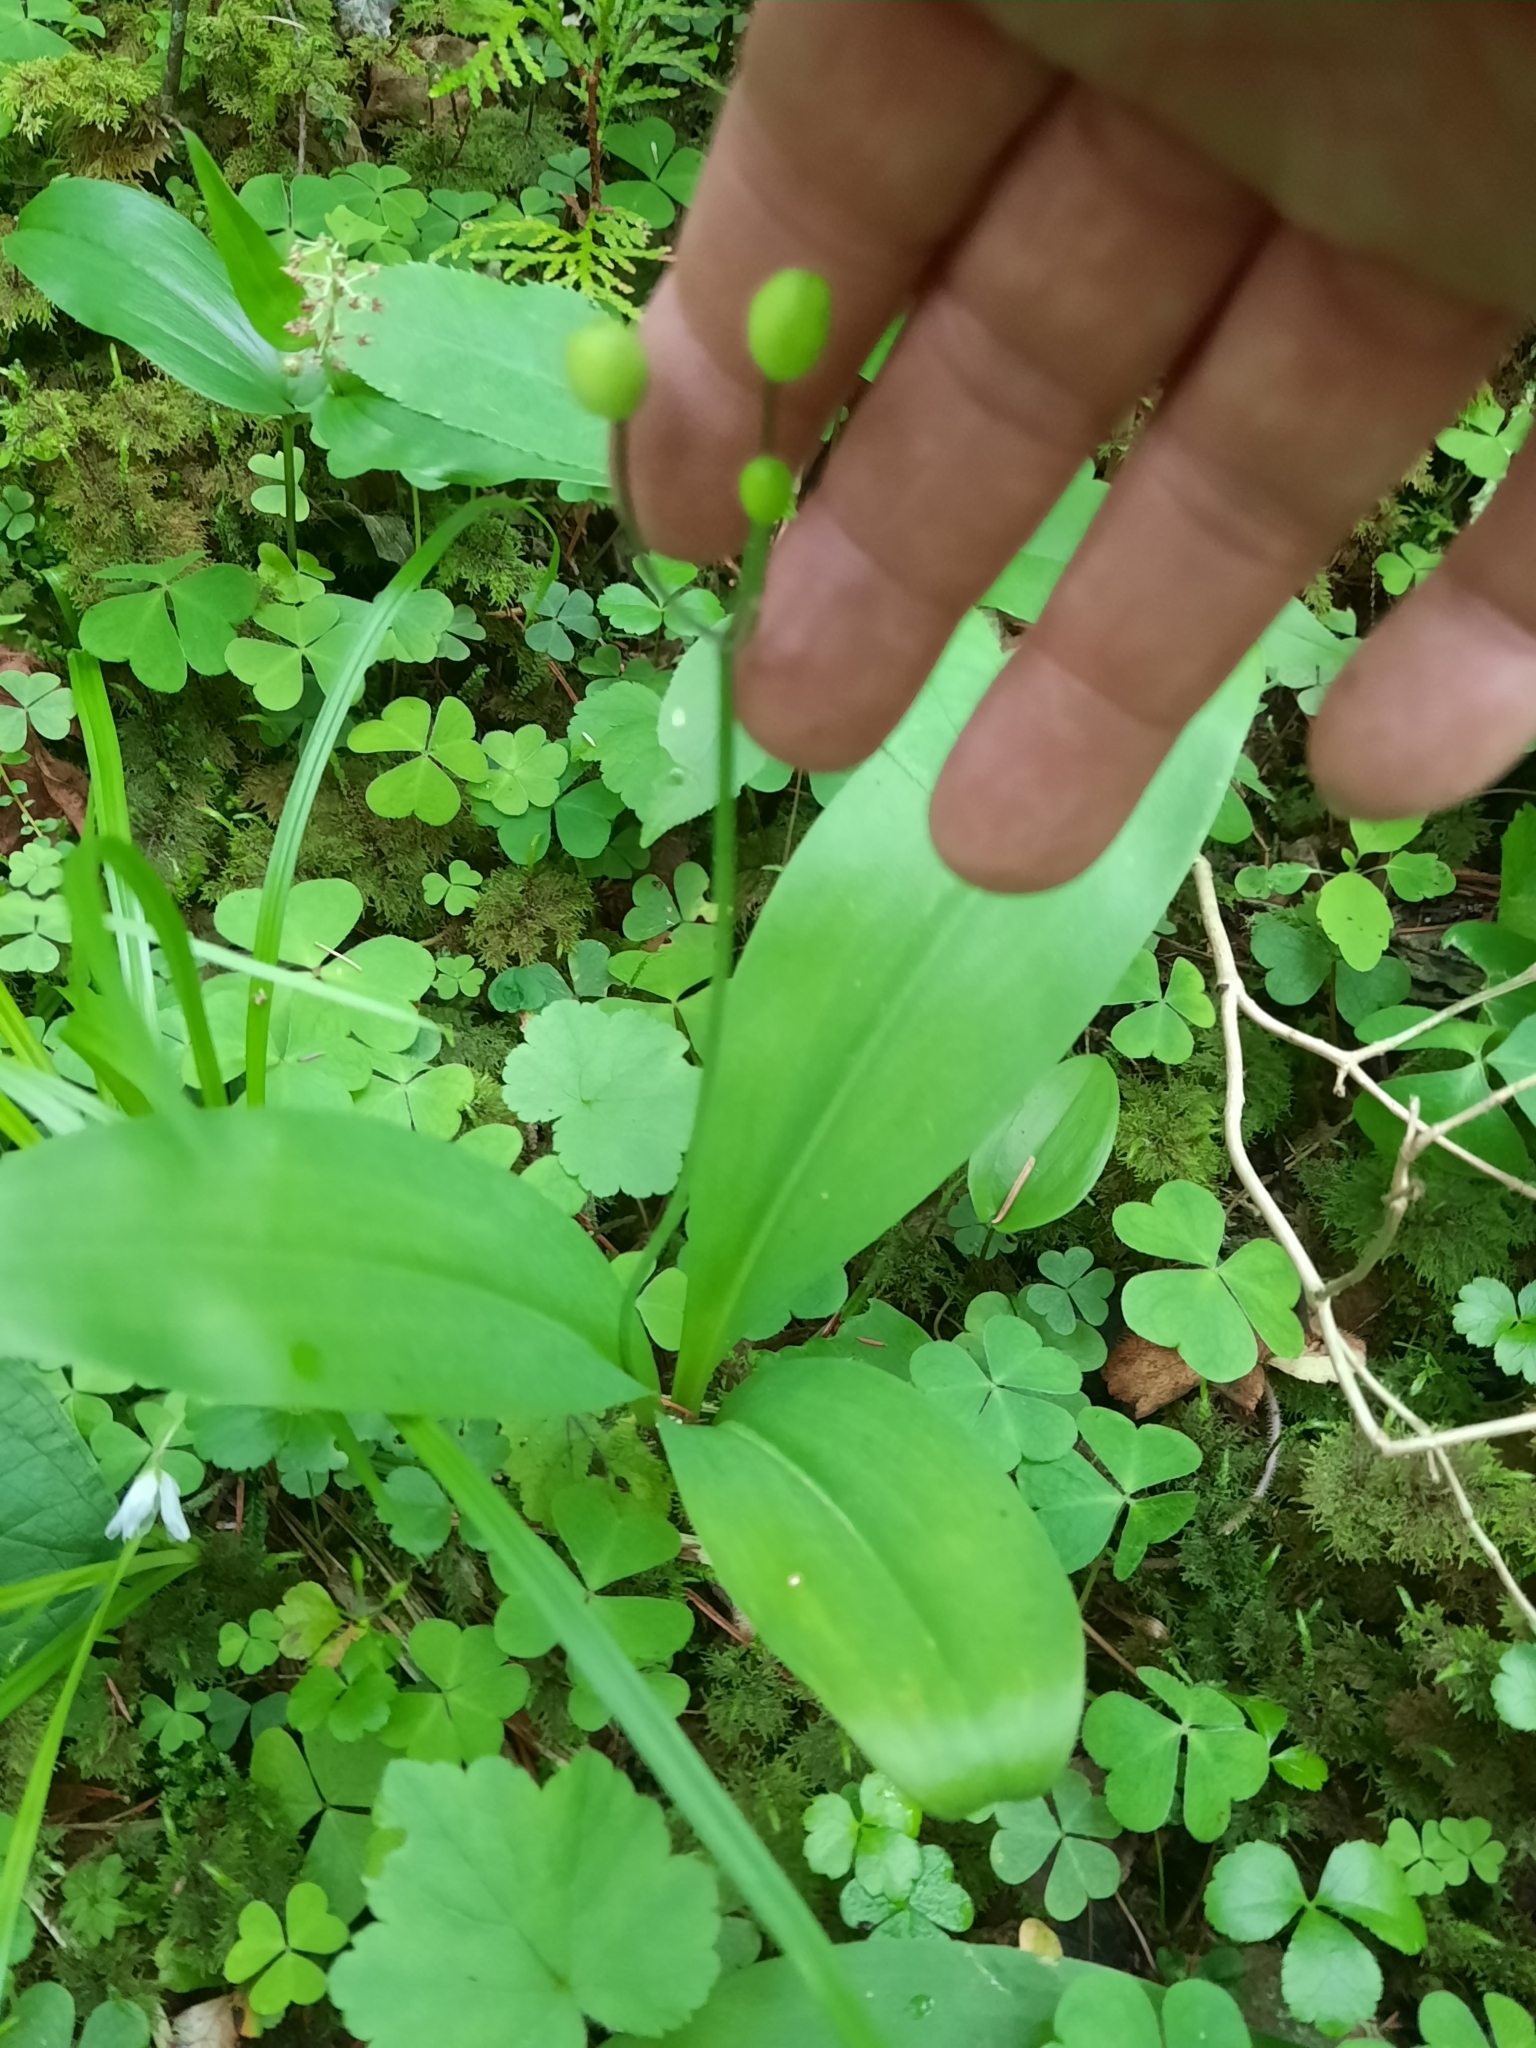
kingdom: Plantae
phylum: Tracheophyta
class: Liliopsida
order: Liliales
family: Liliaceae
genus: Clintonia
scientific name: Clintonia borealis
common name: Yellow clintonia
